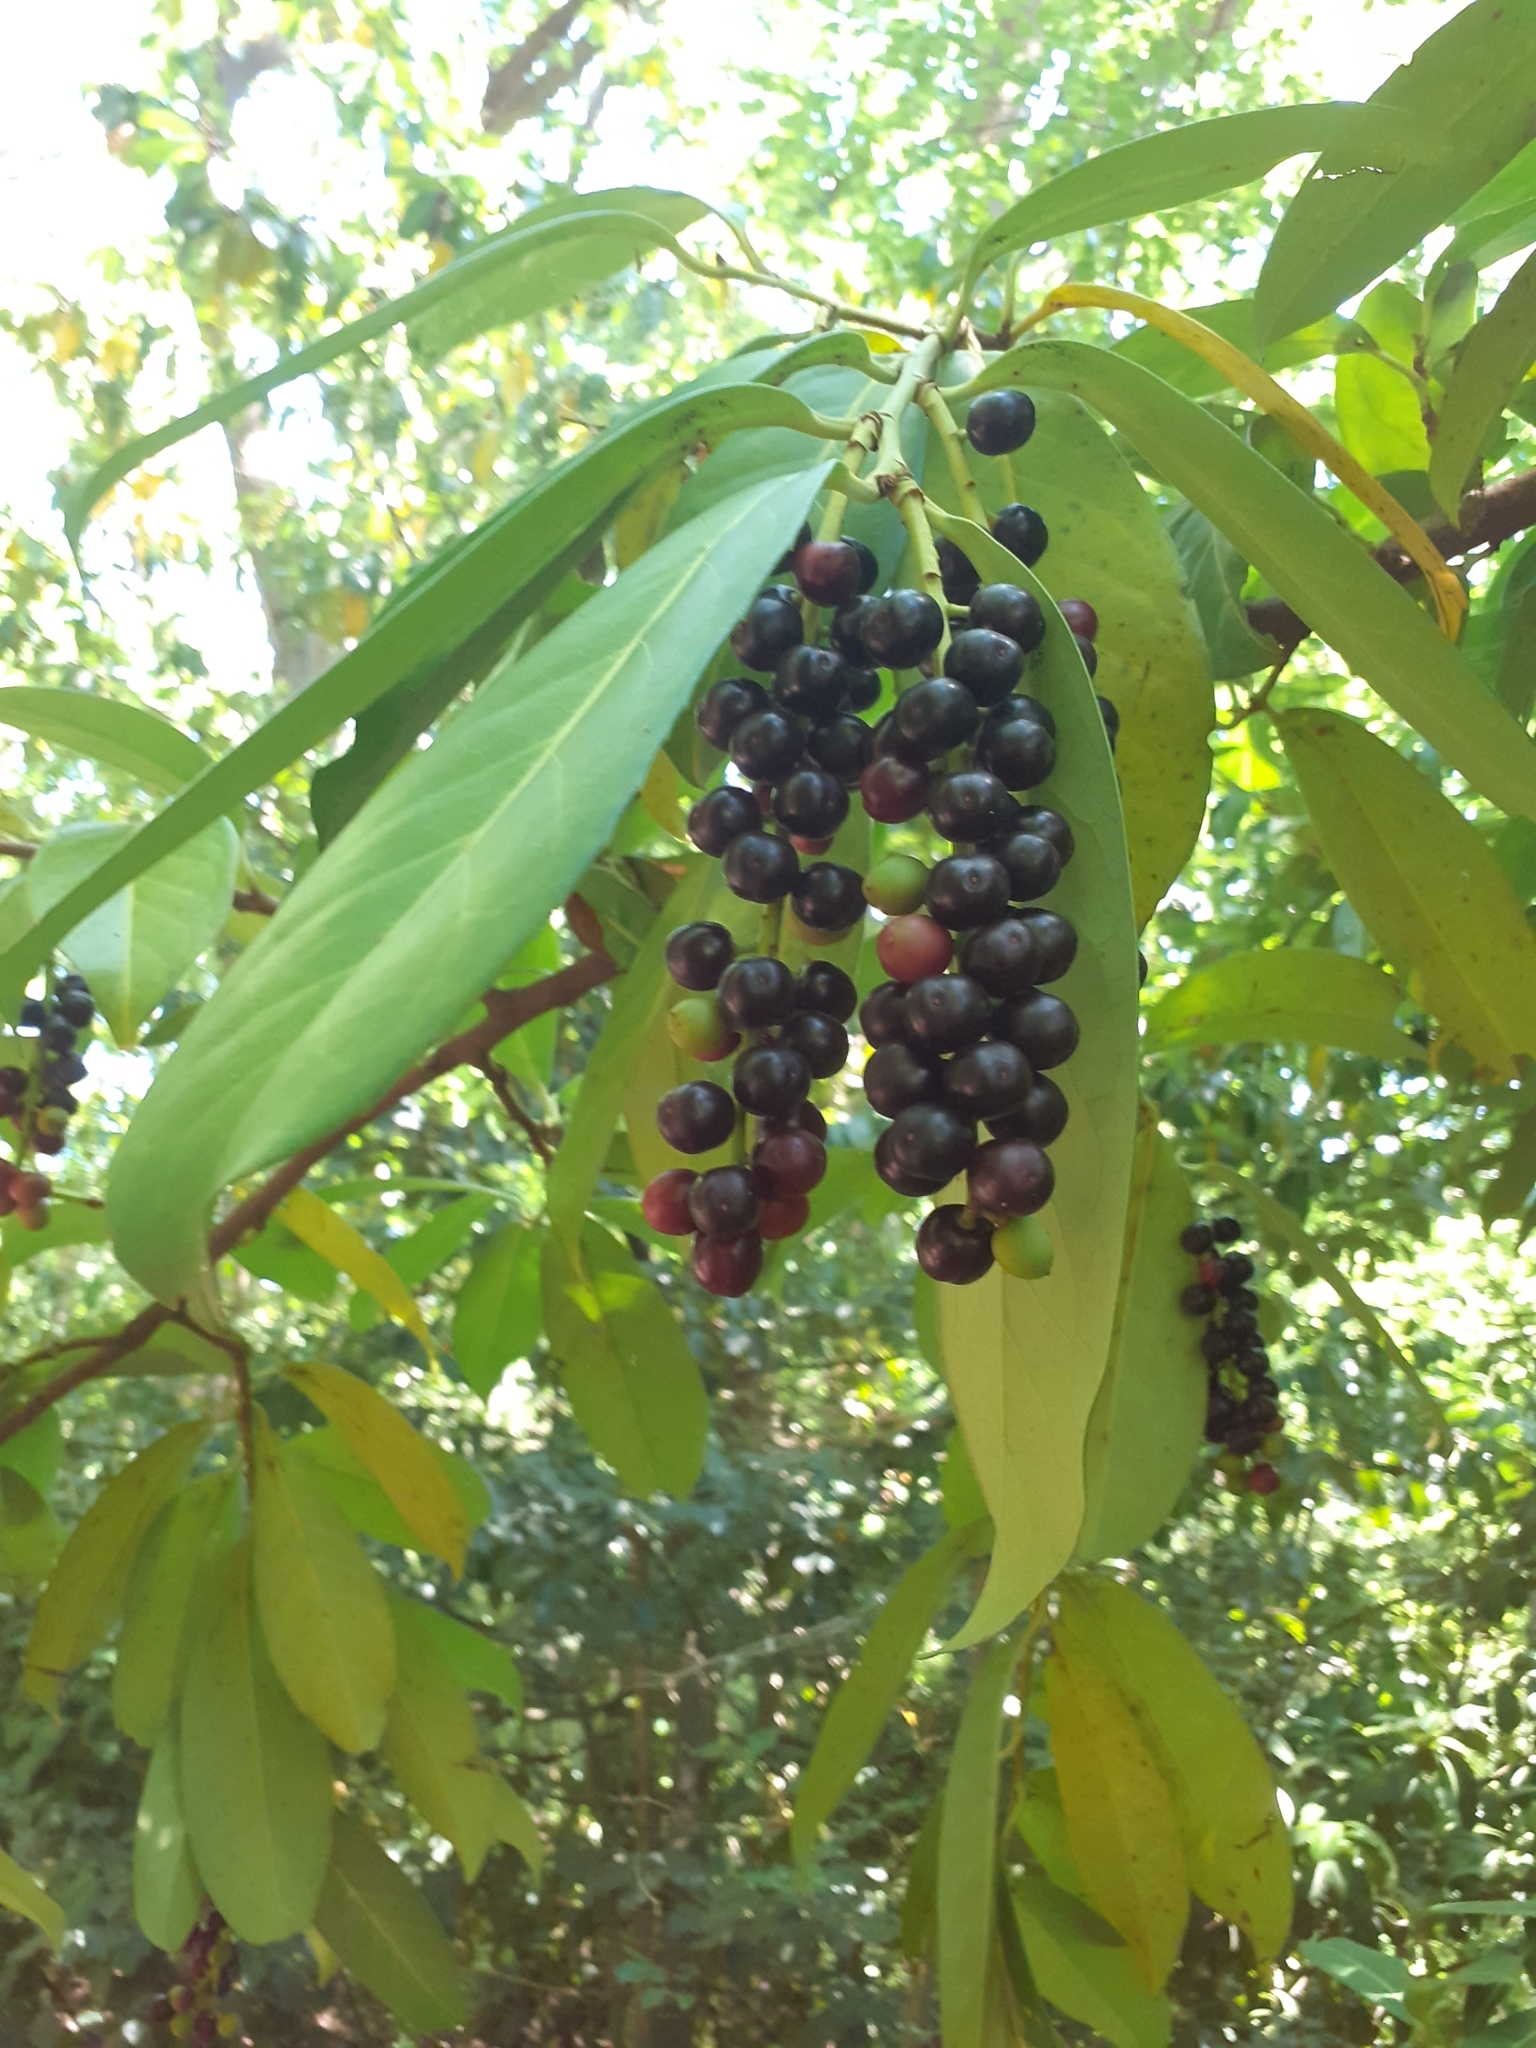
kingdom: Plantae
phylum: Tracheophyta
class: Magnoliopsida
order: Rosales
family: Rosaceae
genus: Prunus
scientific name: Prunus laurocerasus
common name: Cherry laurel
